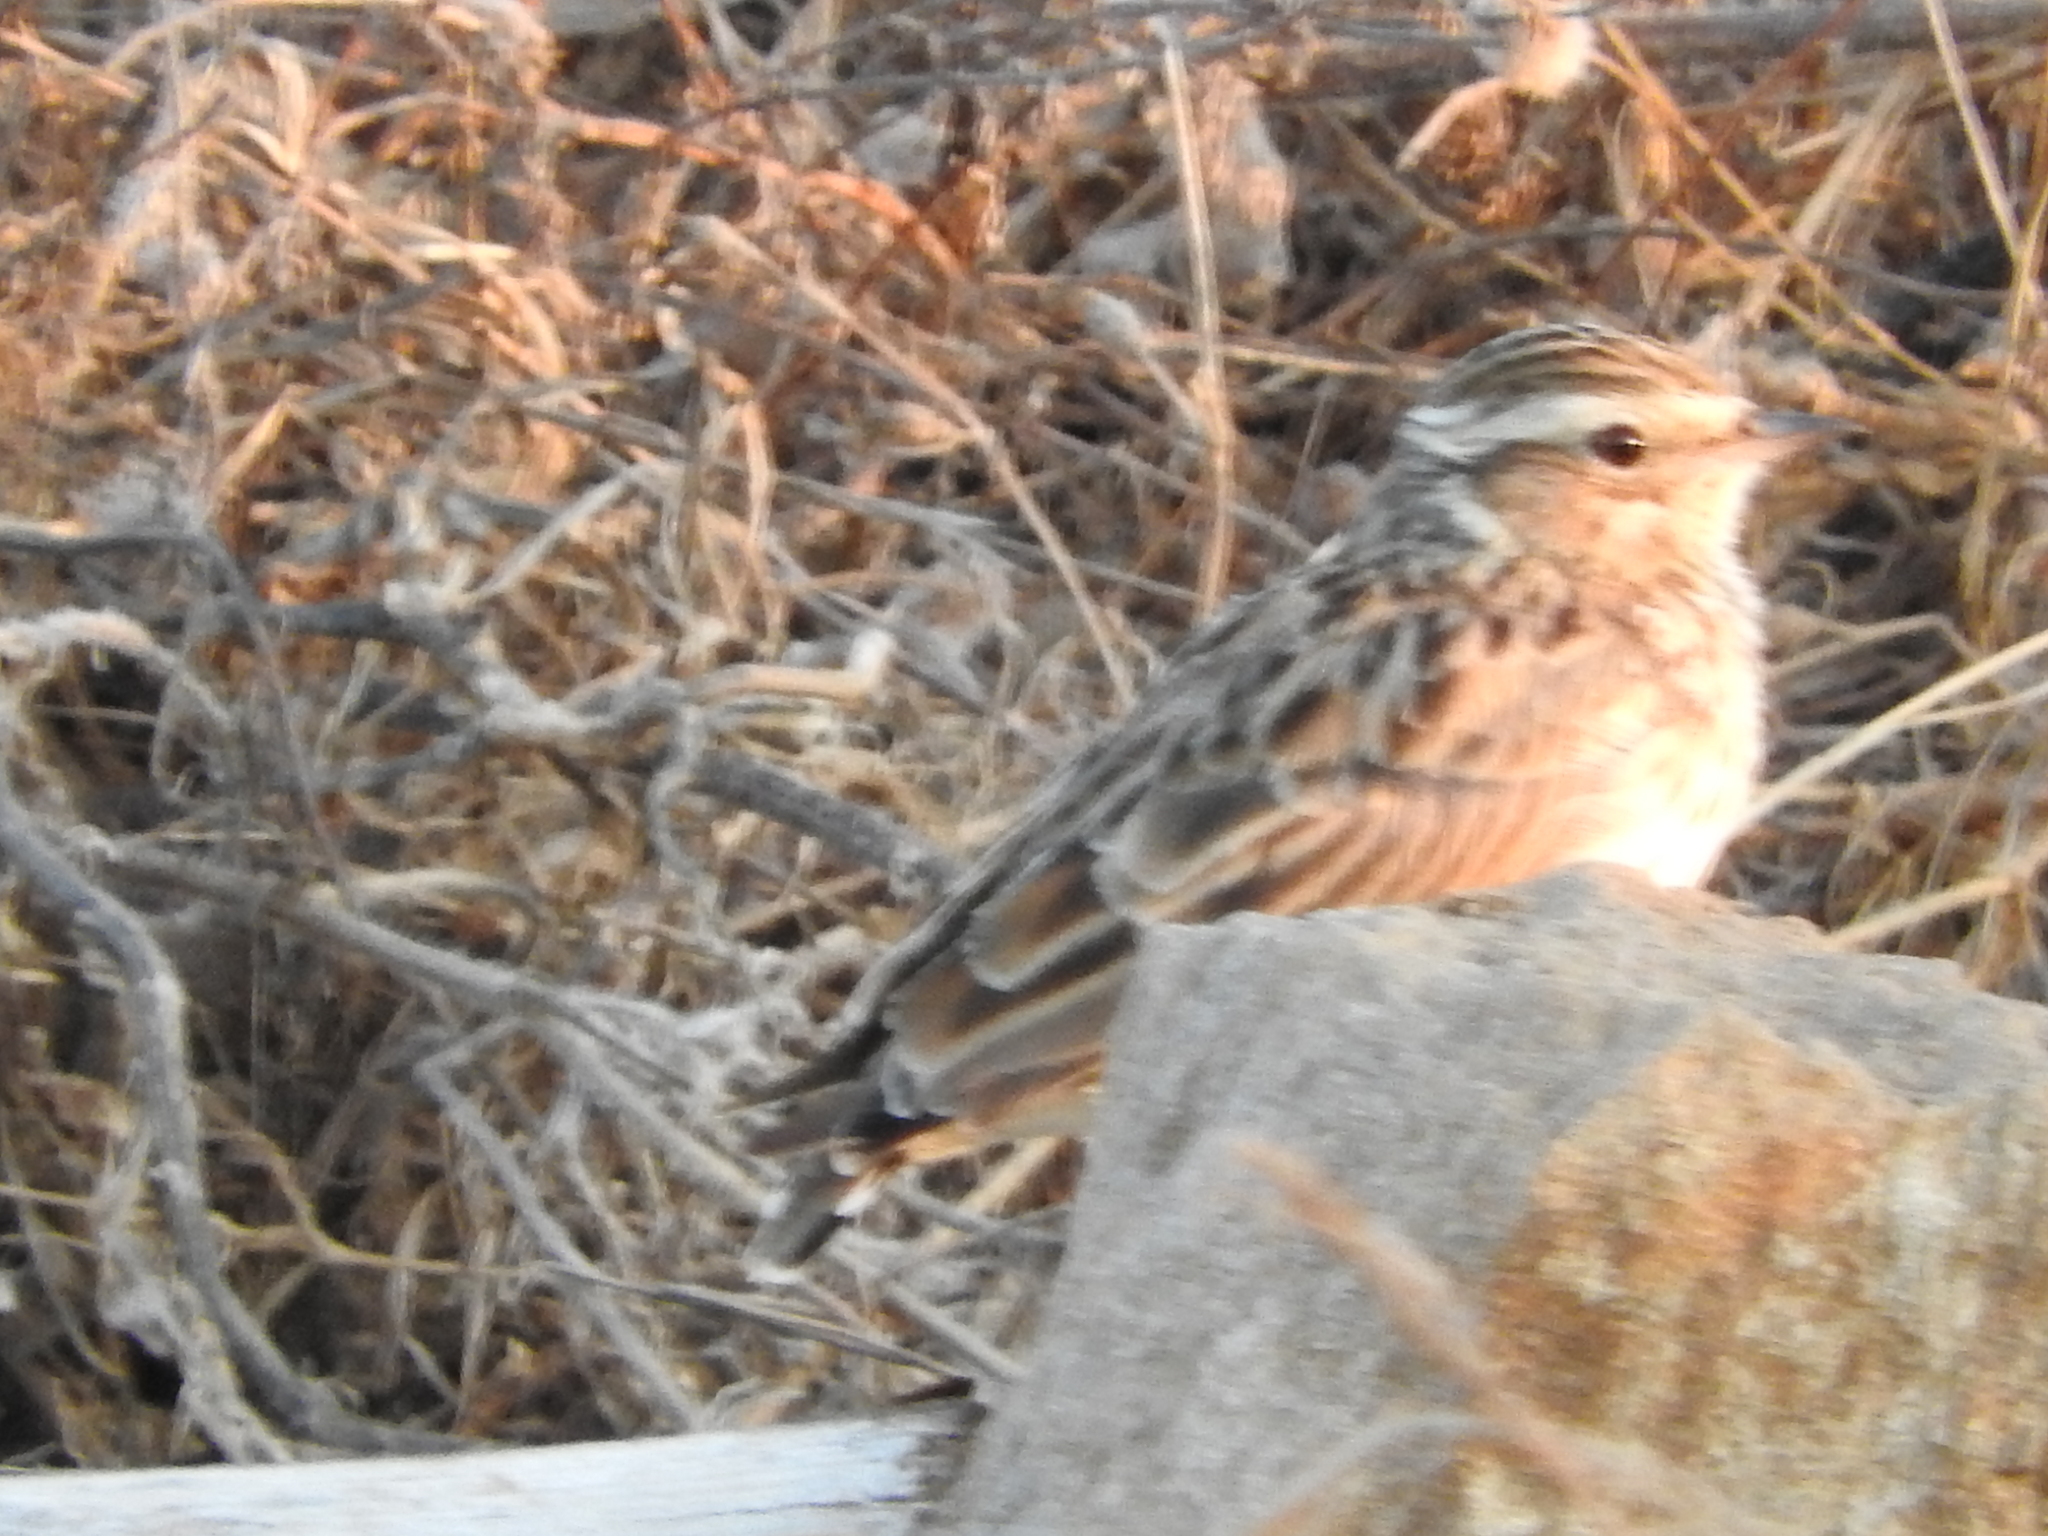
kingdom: Animalia
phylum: Chordata
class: Aves
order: Passeriformes
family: Alaudidae
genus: Lullula
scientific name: Lullula arborea
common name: Woodlark
